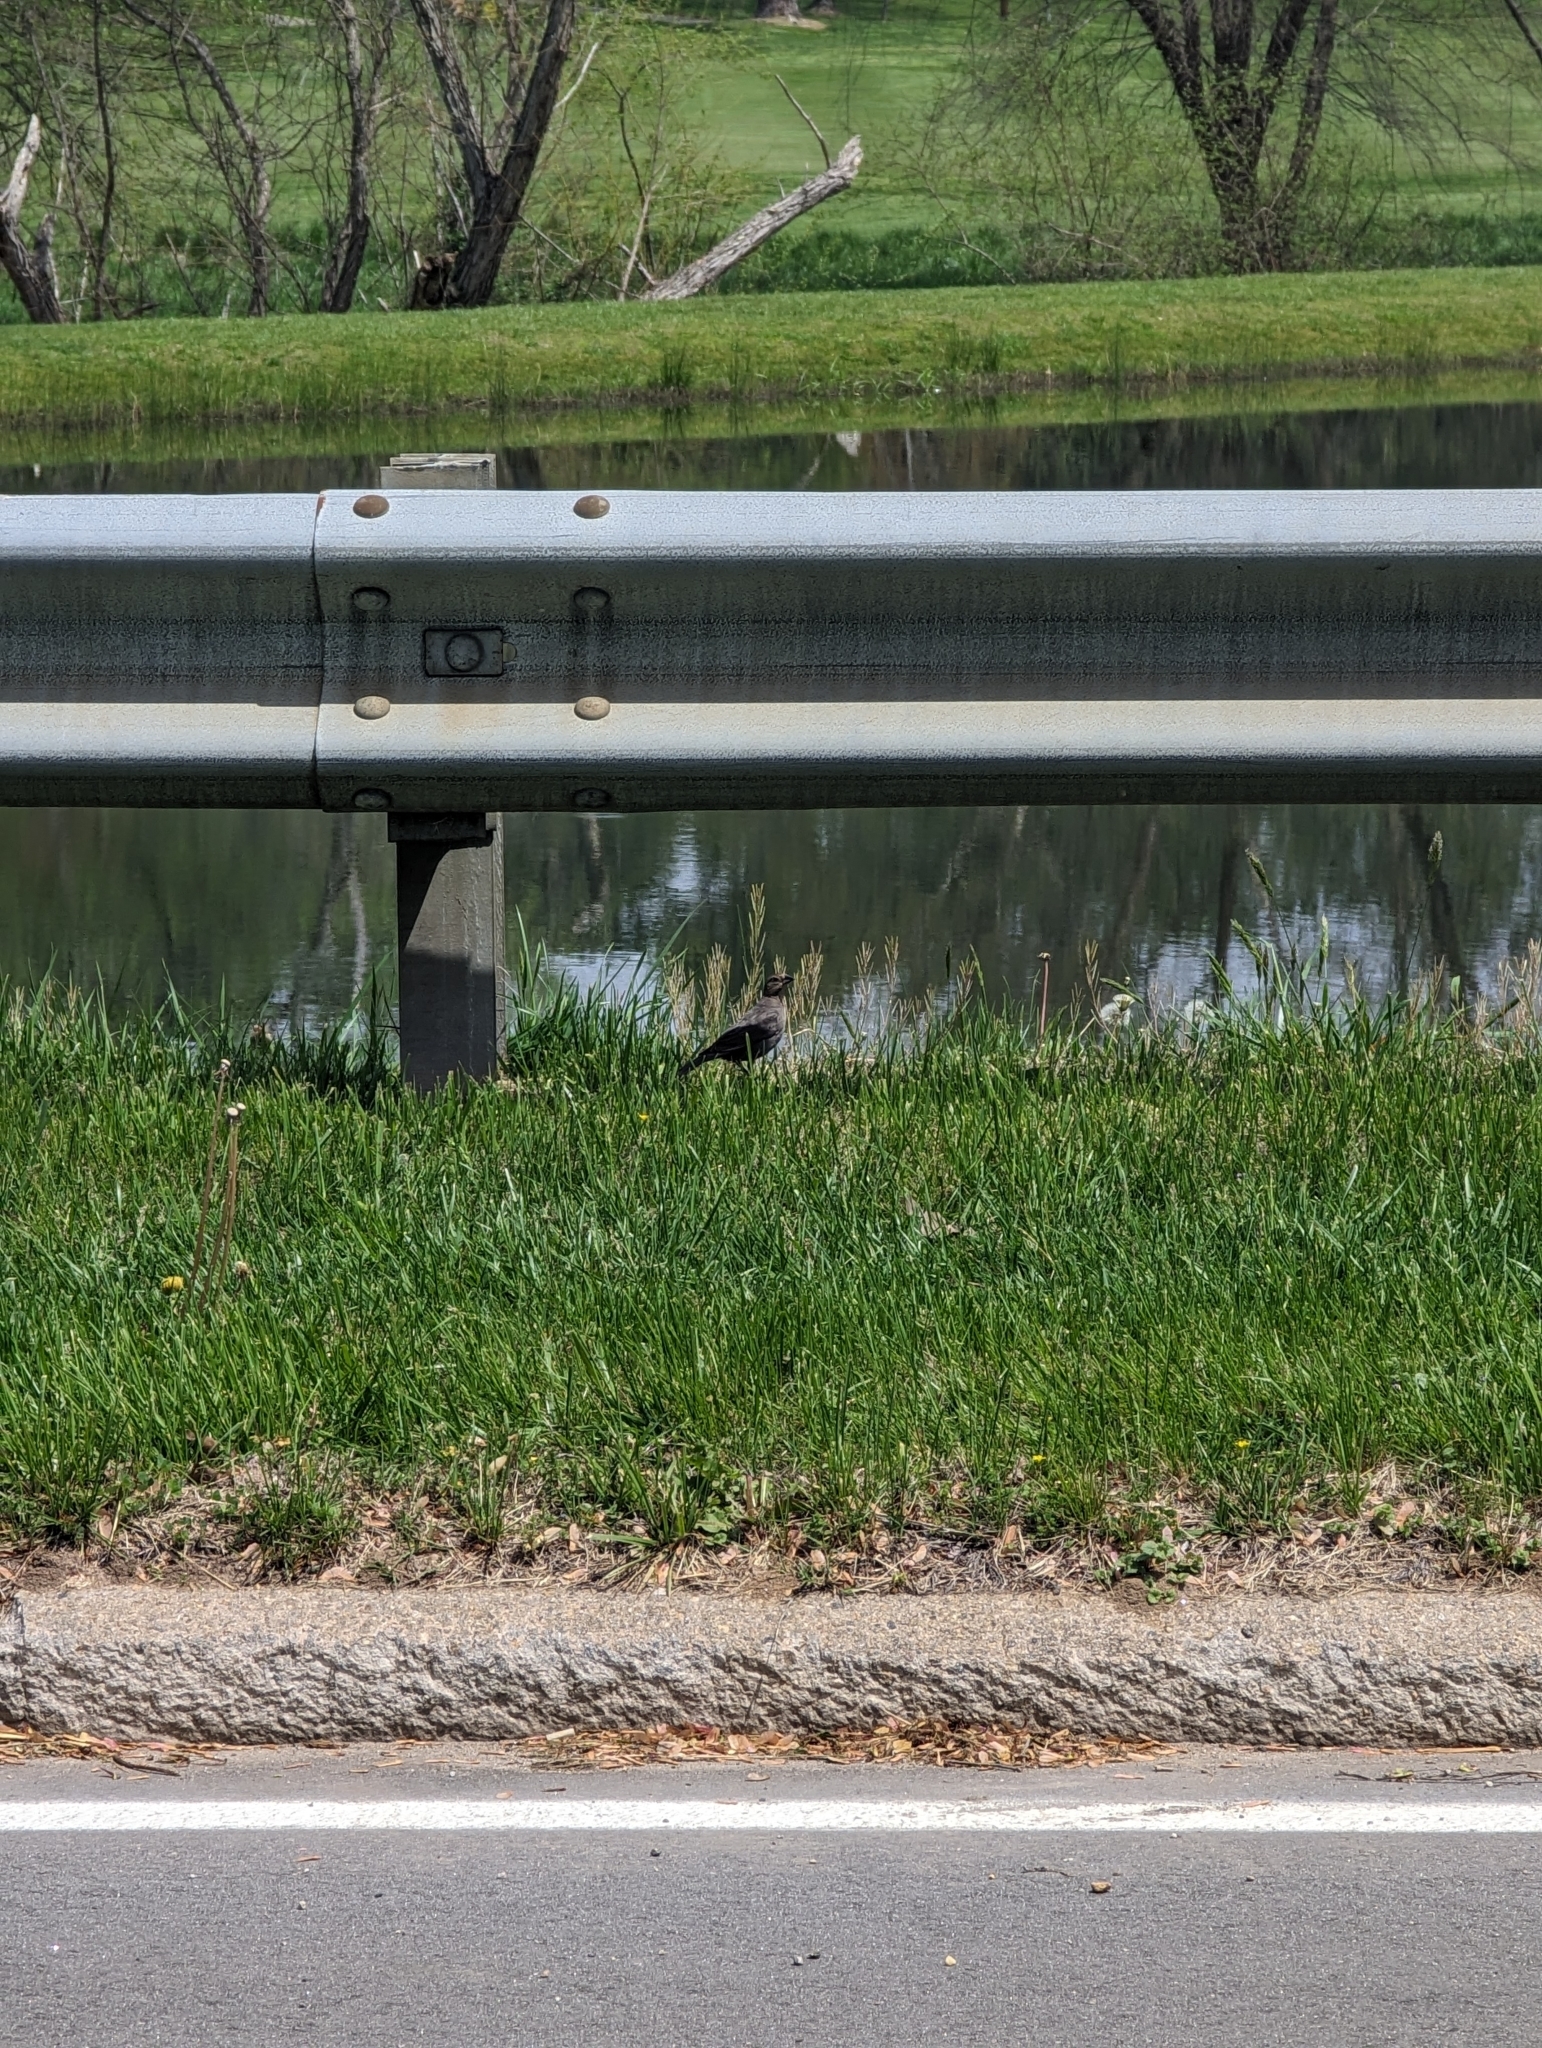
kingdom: Animalia
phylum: Chordata
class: Aves
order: Passeriformes
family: Icteridae
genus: Molothrus
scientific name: Molothrus ater
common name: Brown-headed cowbird
